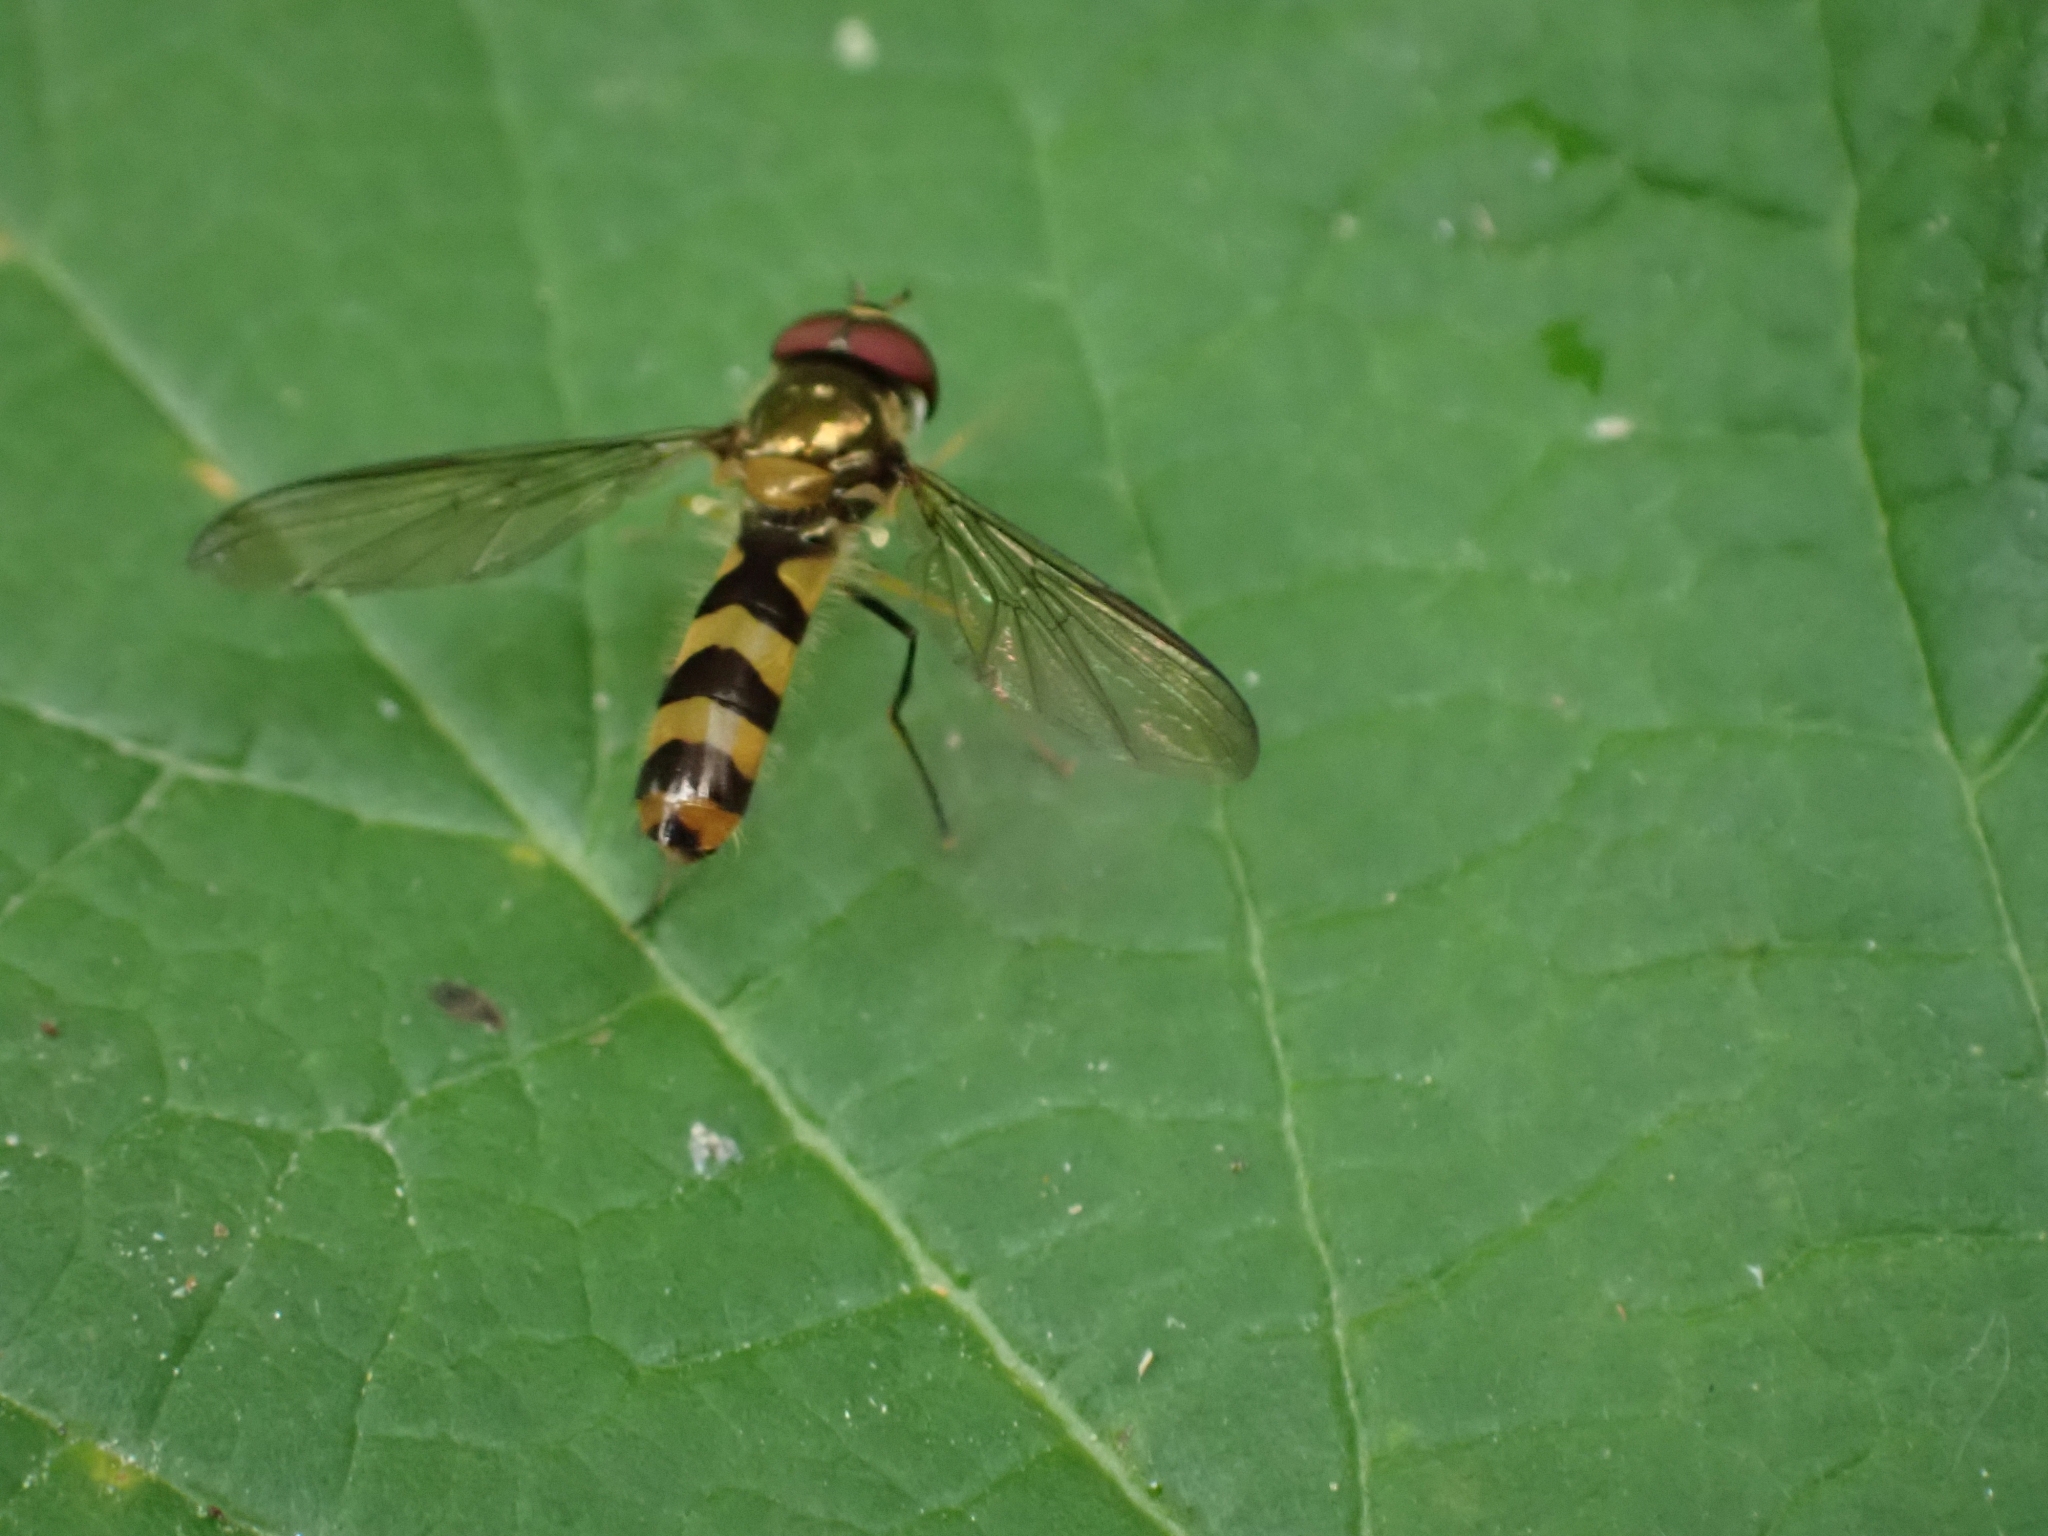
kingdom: Animalia
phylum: Arthropoda
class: Insecta
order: Diptera
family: Syrphidae
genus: Meliscaeva
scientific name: Meliscaeva cinctella
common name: American thintail fly
